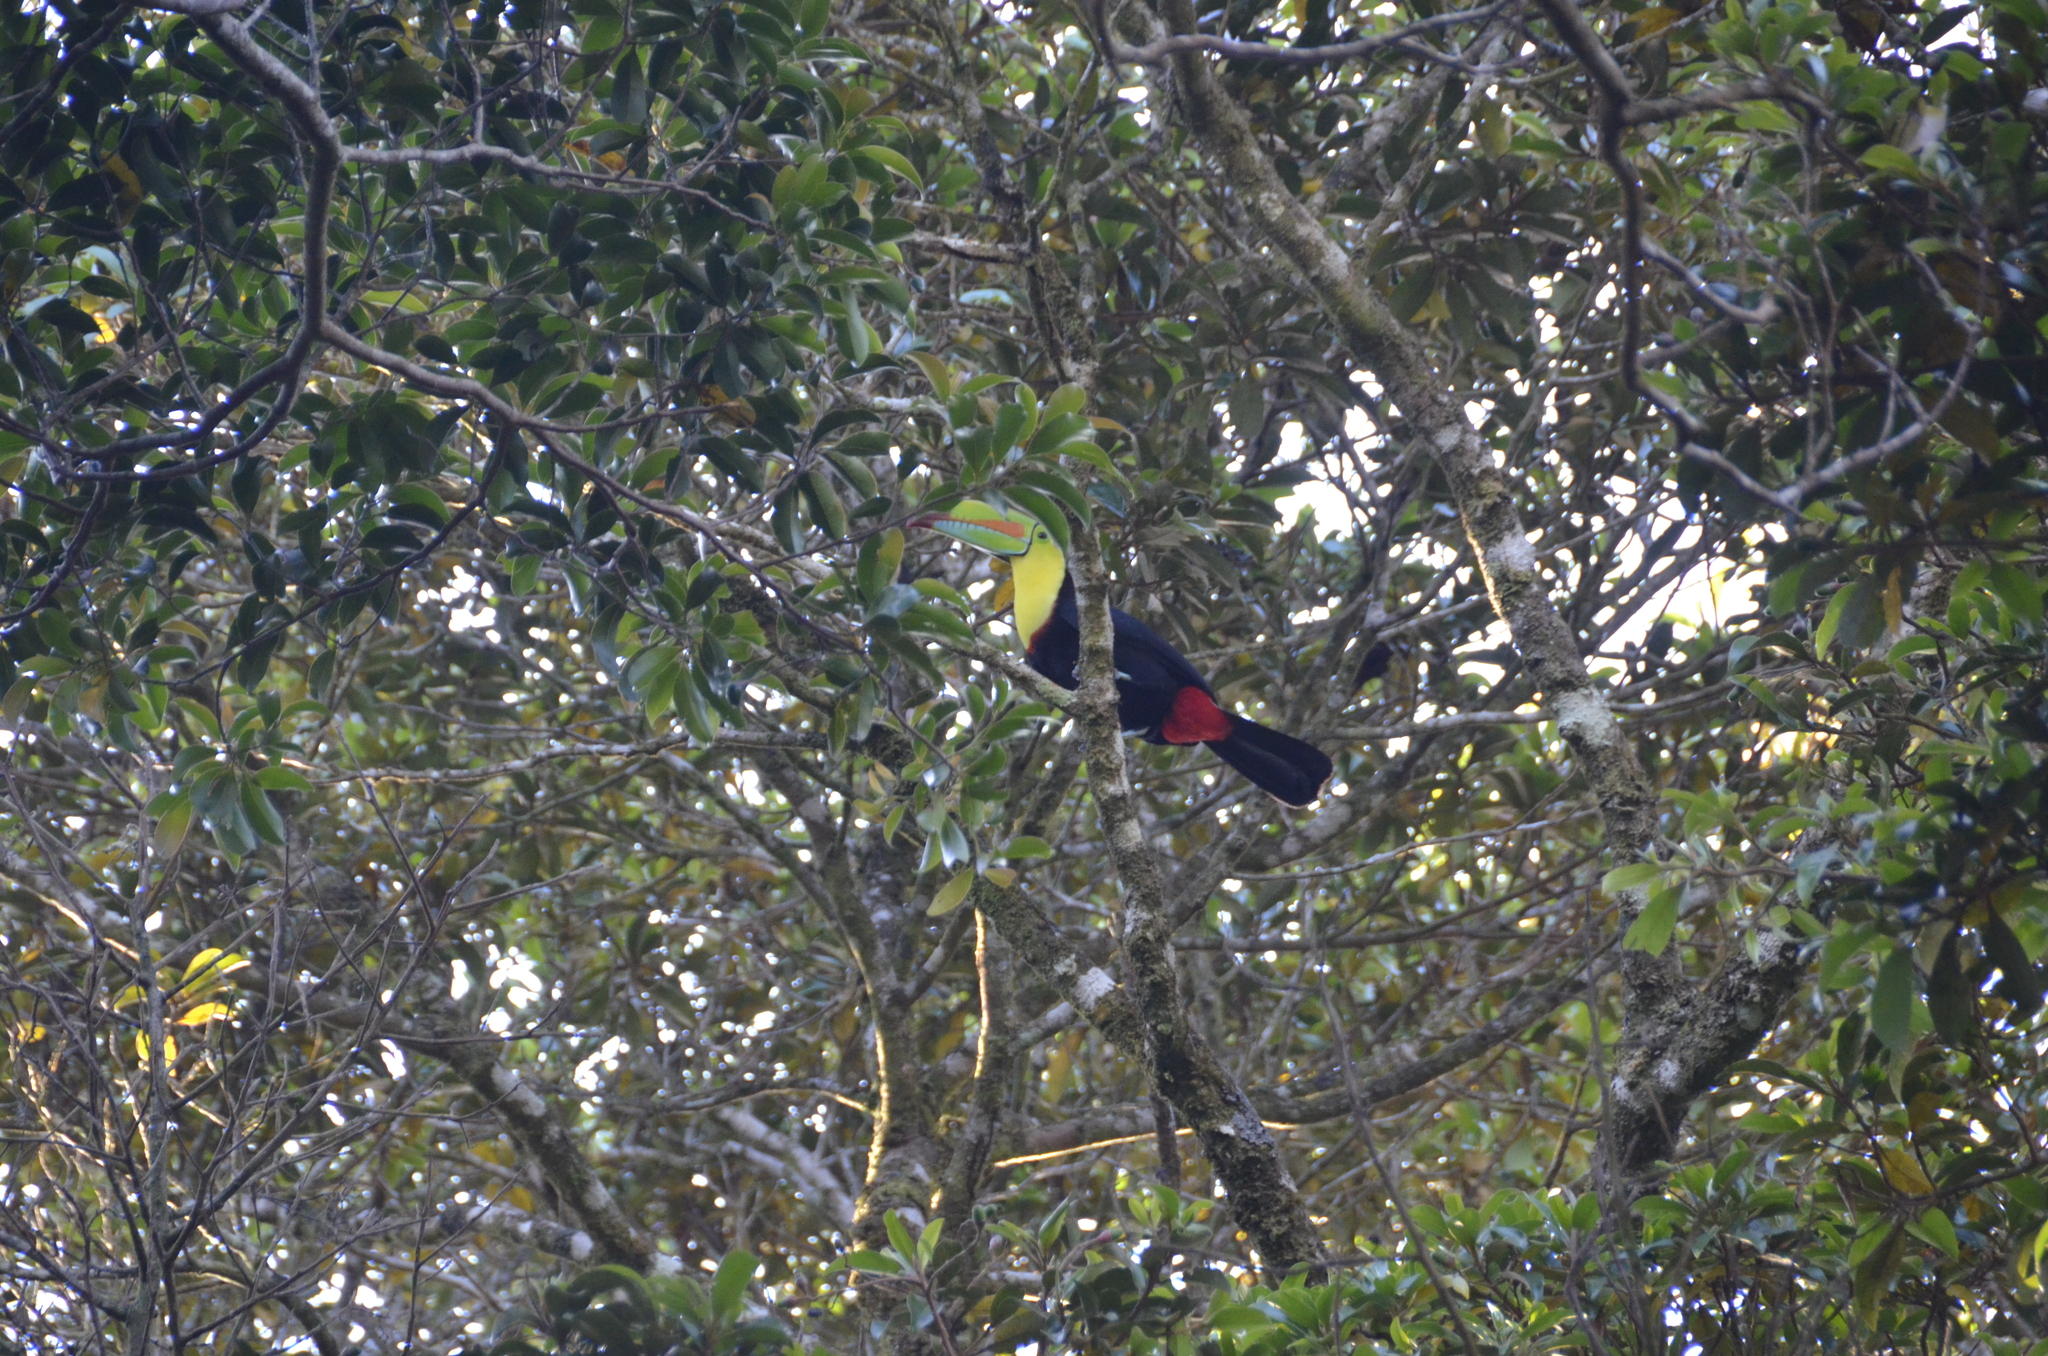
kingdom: Animalia
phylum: Chordata
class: Aves
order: Piciformes
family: Ramphastidae
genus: Ramphastos
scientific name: Ramphastos sulfuratus
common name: Keel-billed toucan
